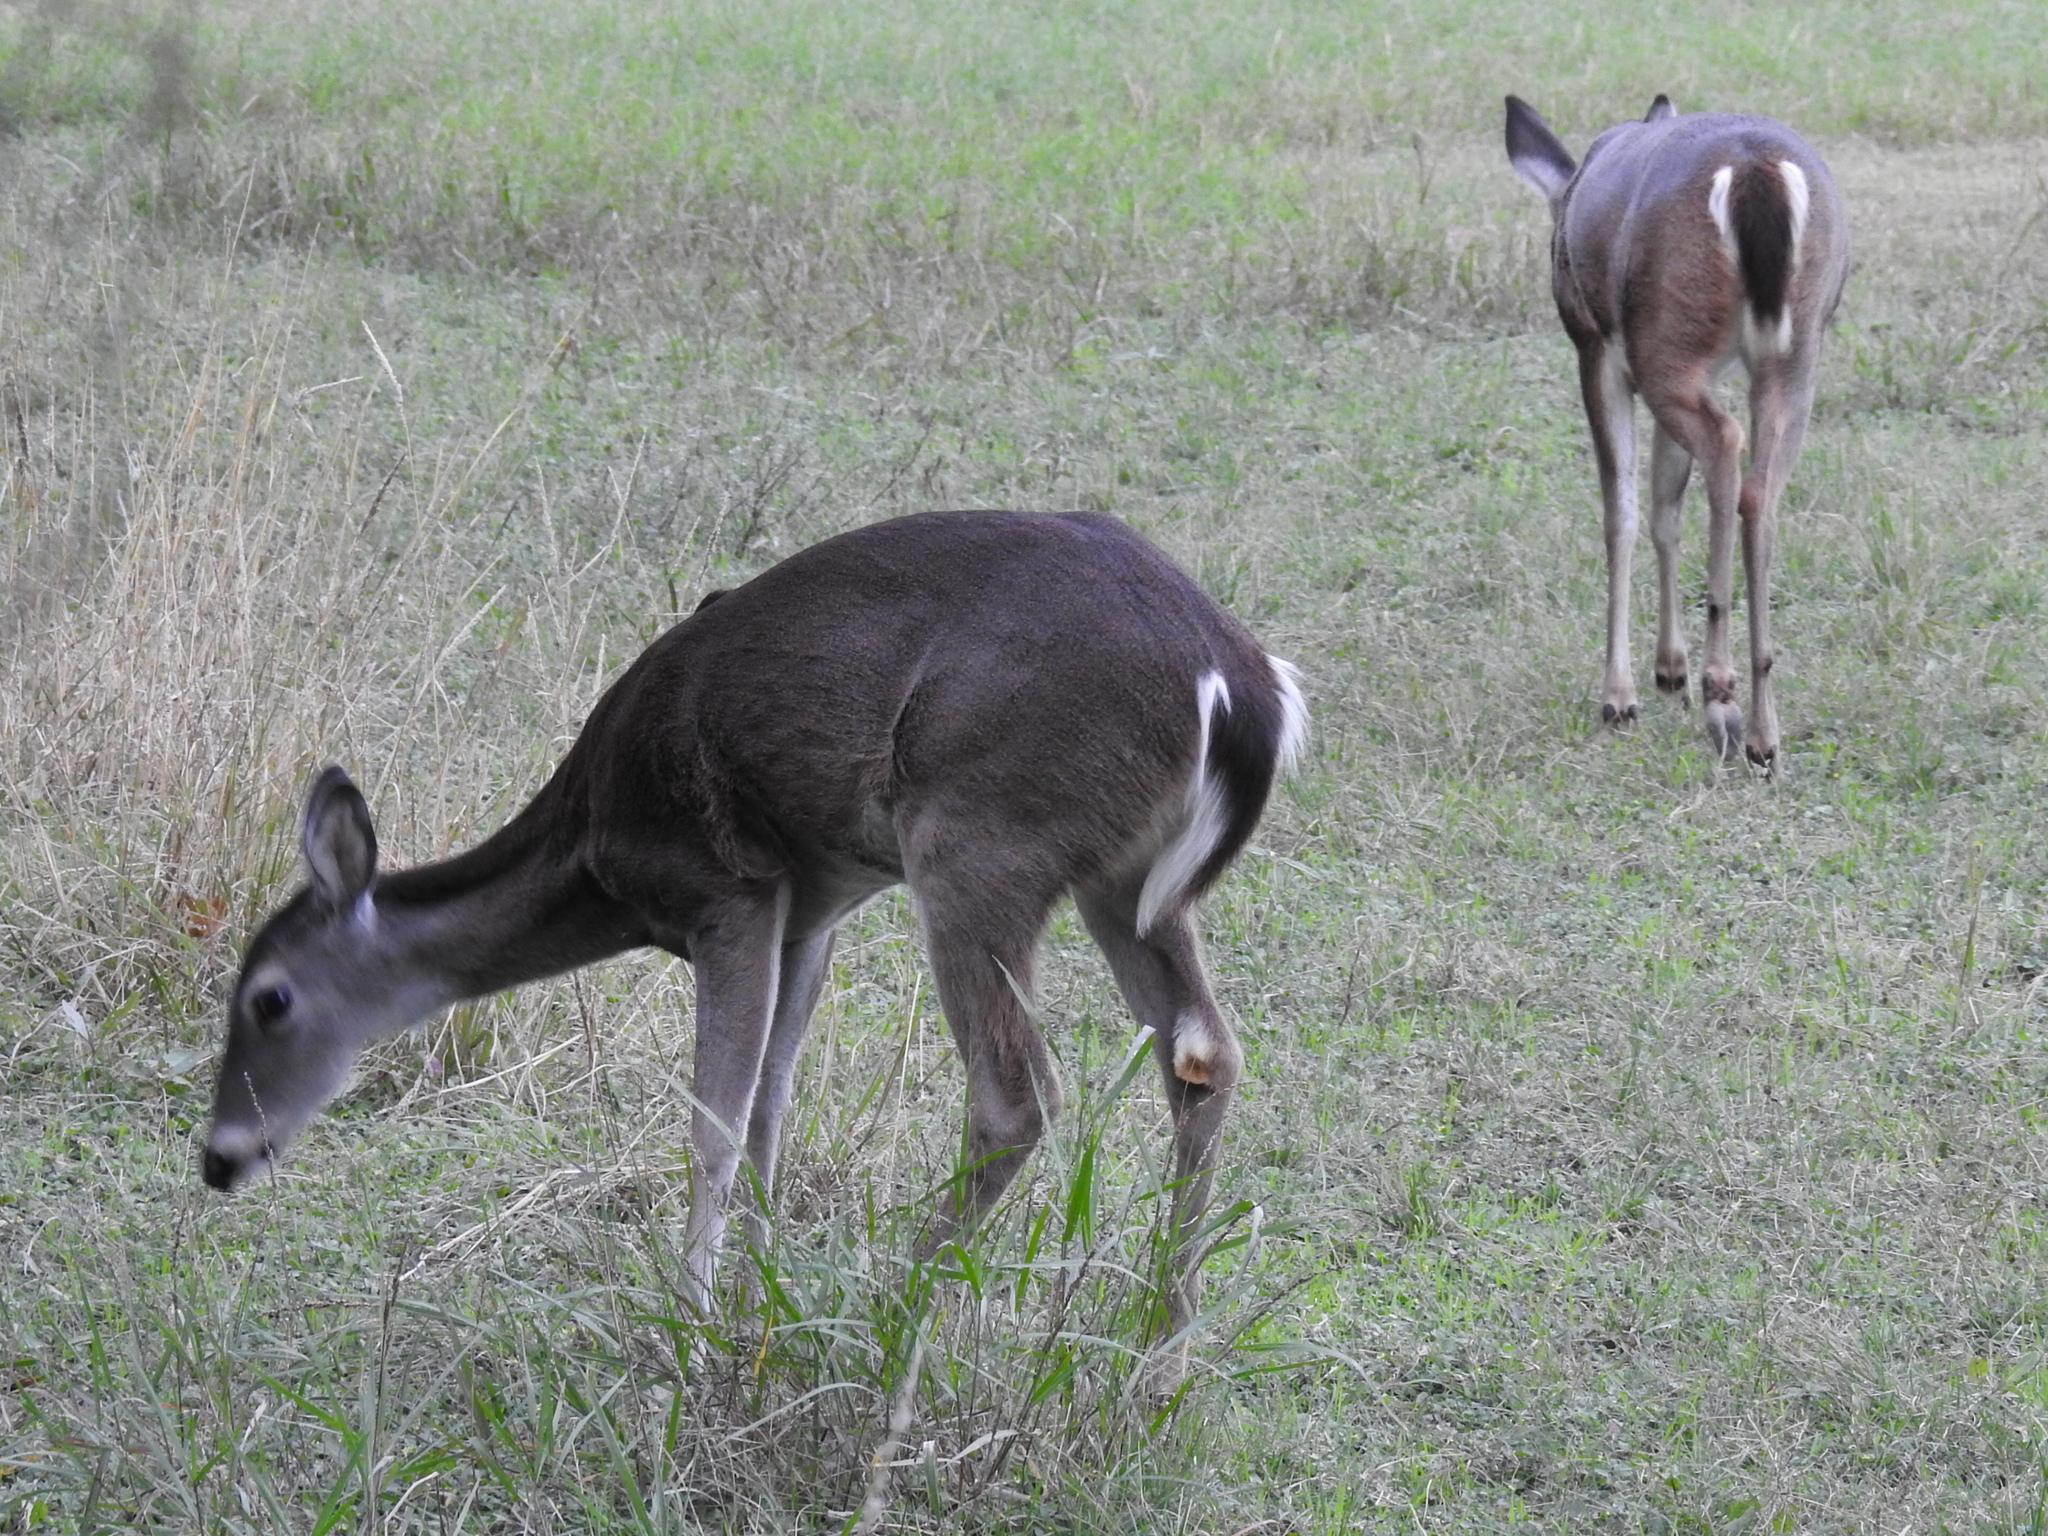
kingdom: Animalia
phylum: Chordata
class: Mammalia
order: Artiodactyla
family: Cervidae
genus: Odocoileus
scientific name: Odocoileus virginianus
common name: White-tailed deer
